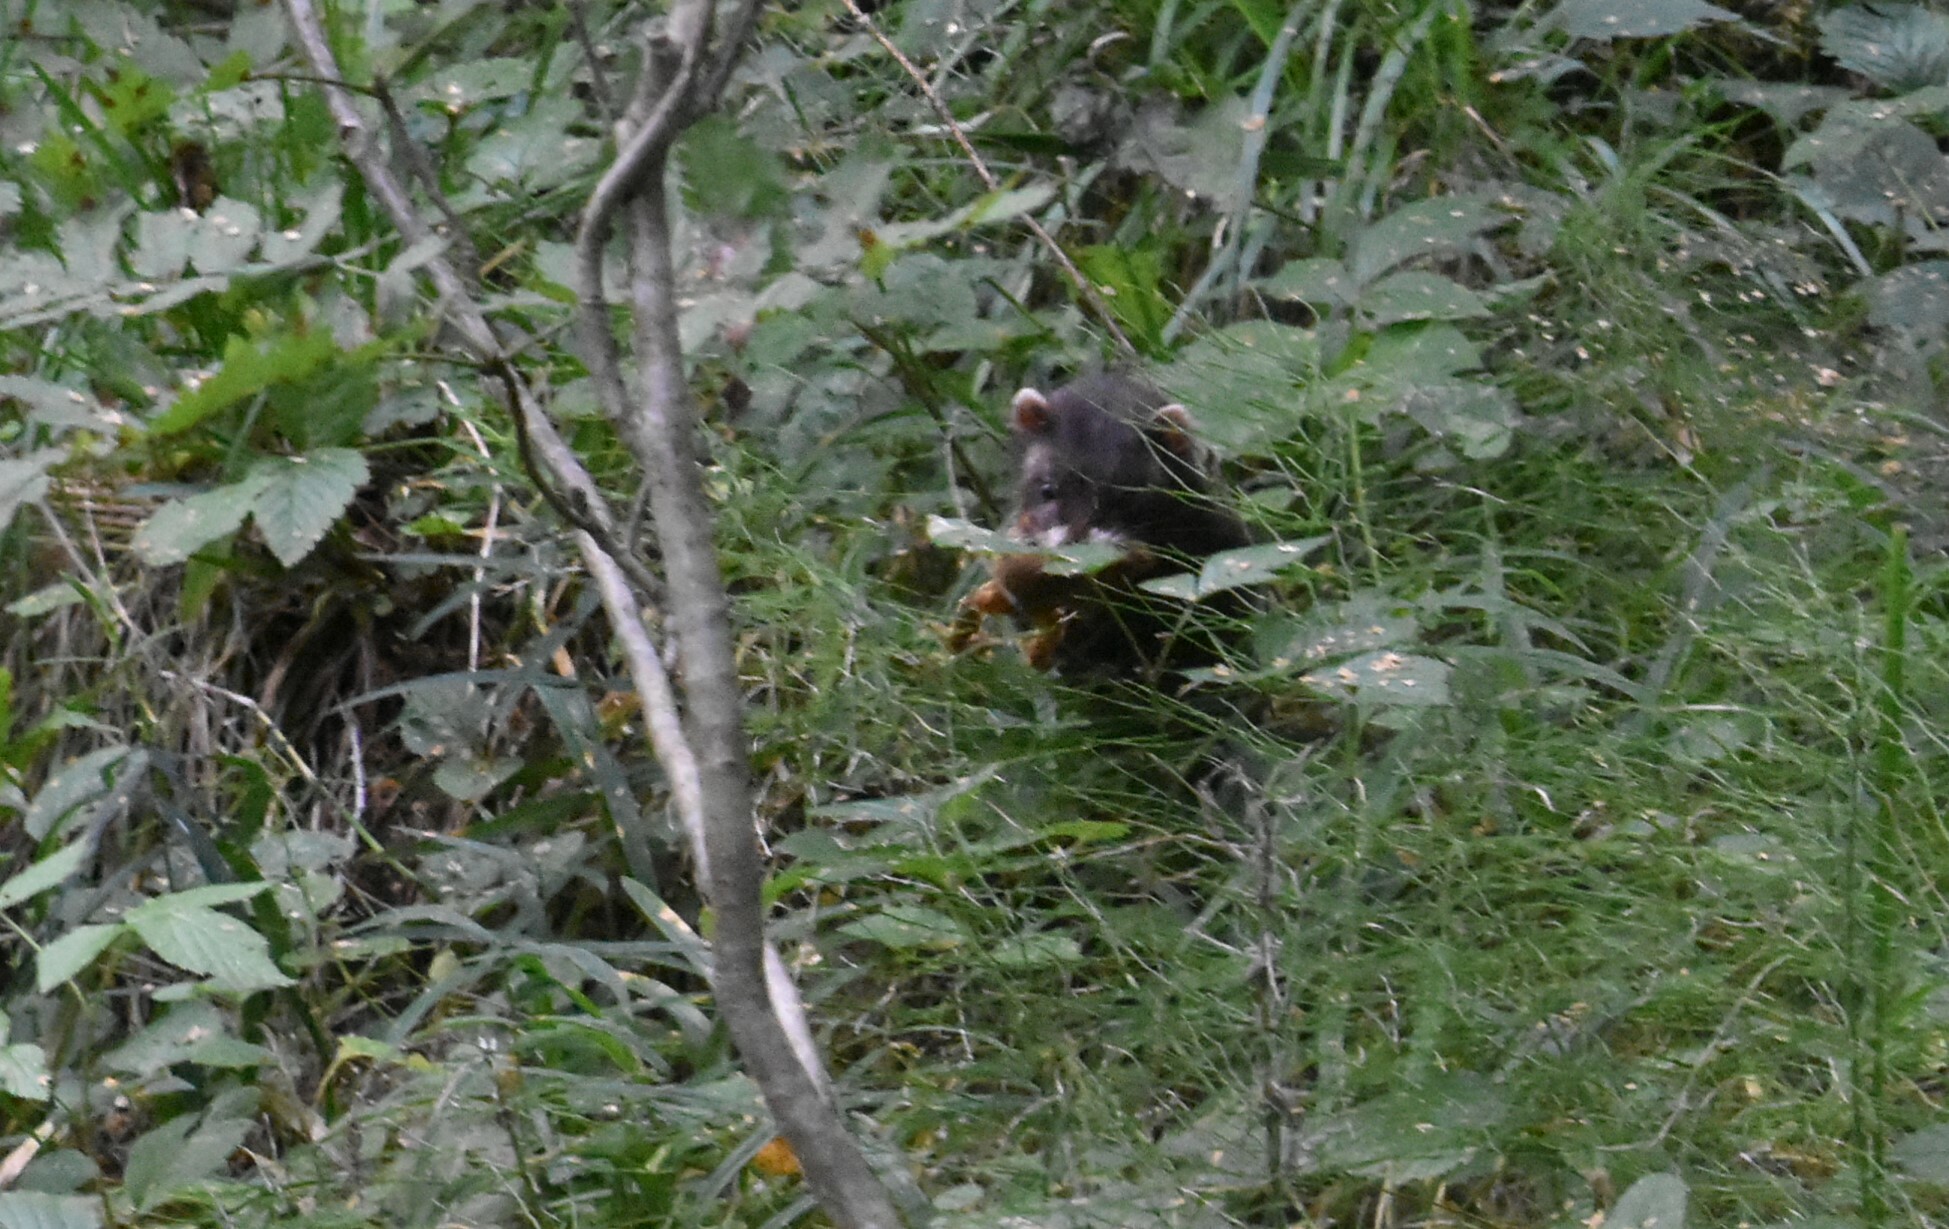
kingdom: Animalia
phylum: Chordata
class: Mammalia
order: Carnivora
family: Mustelidae
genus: Mustela
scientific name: Mustela putorius
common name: European polecat
